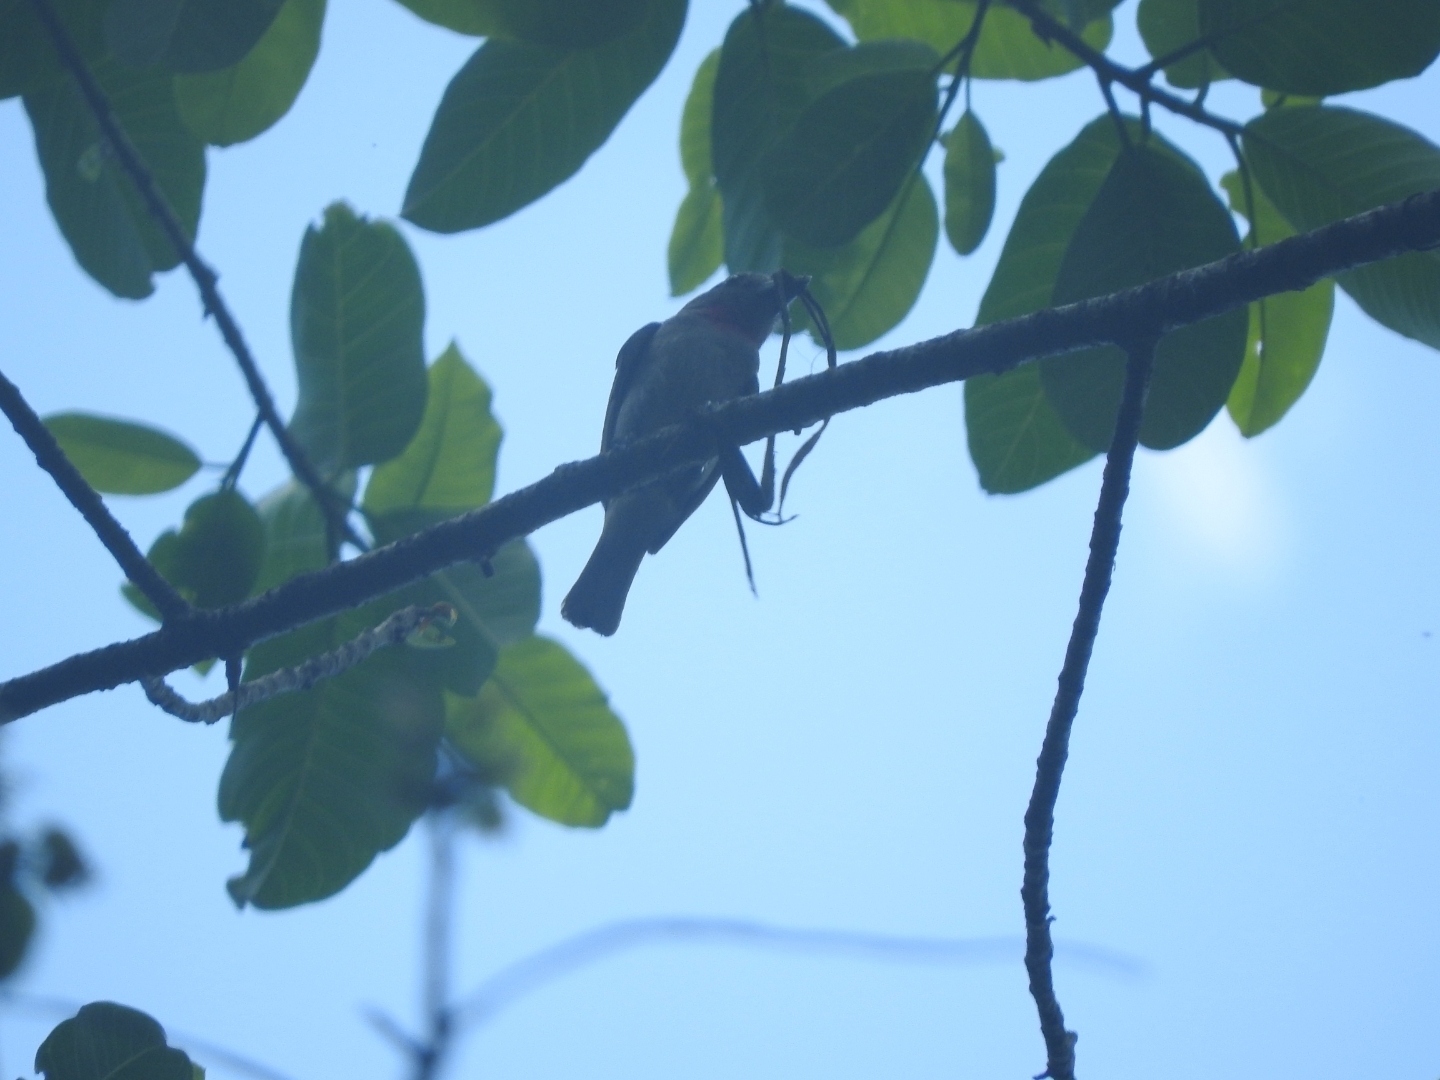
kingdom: Animalia
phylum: Chordata
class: Aves
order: Passeriformes
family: Cotingidae
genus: Pachyramphus
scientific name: Pachyramphus aglaiae
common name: Rose-throated becard
